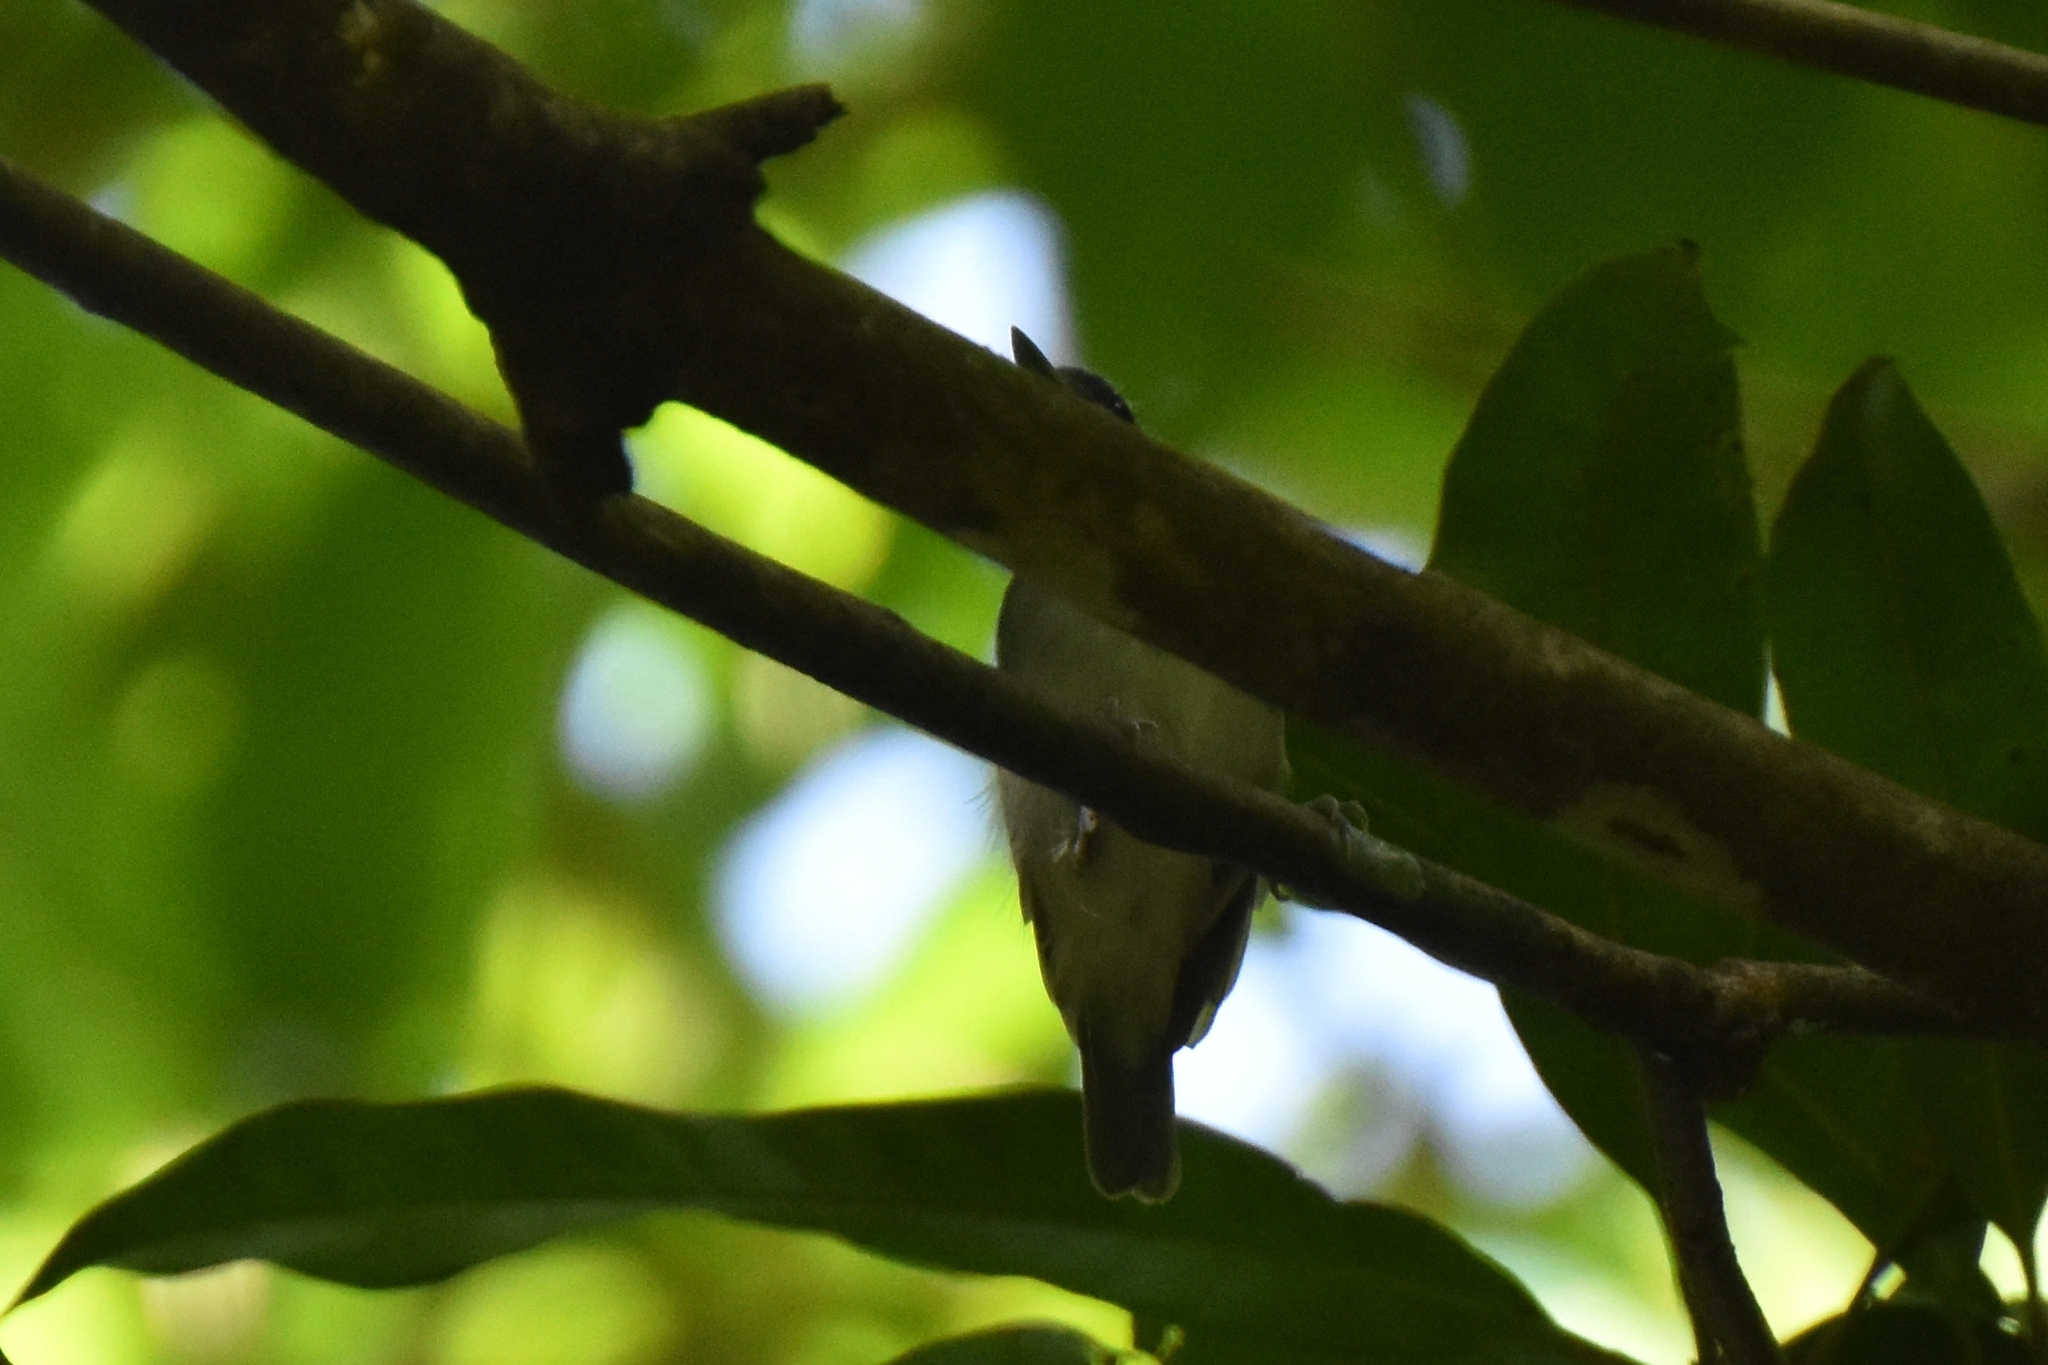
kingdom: Animalia
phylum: Chordata
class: Aves
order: Passeriformes
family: Thamnophilidae
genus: Dysithamnus
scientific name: Dysithamnus mentalis
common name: Plain antvireo
